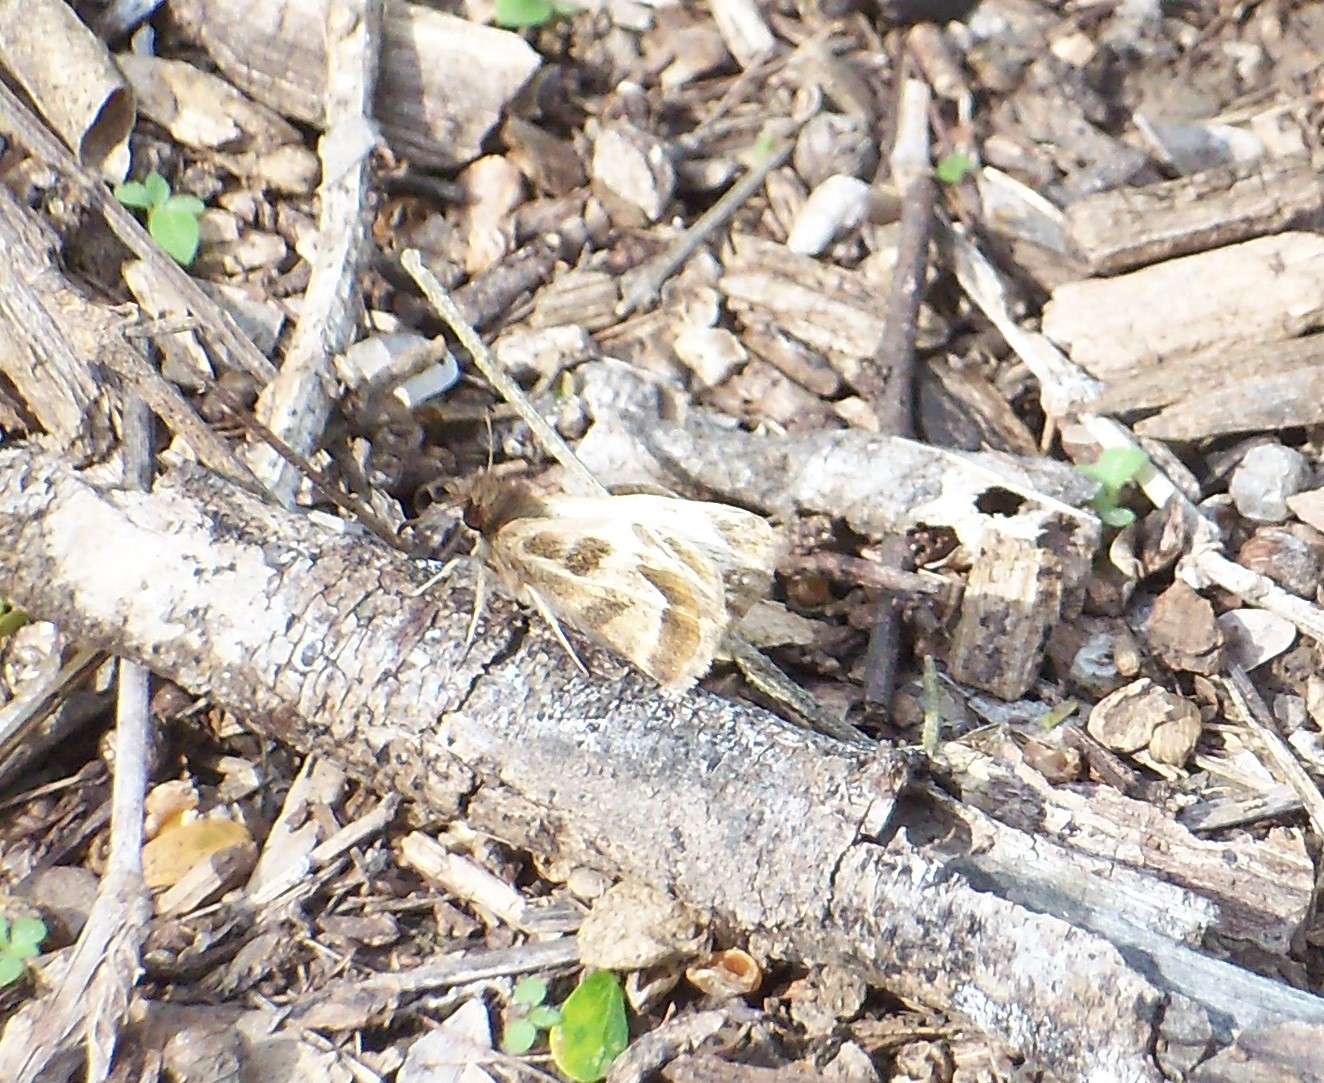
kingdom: Animalia
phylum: Arthropoda
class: Insecta
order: Lepidoptera
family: Hesperiidae
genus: Heliopetes
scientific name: Heliopetes macaira
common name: Turk's-cap white-skipper
